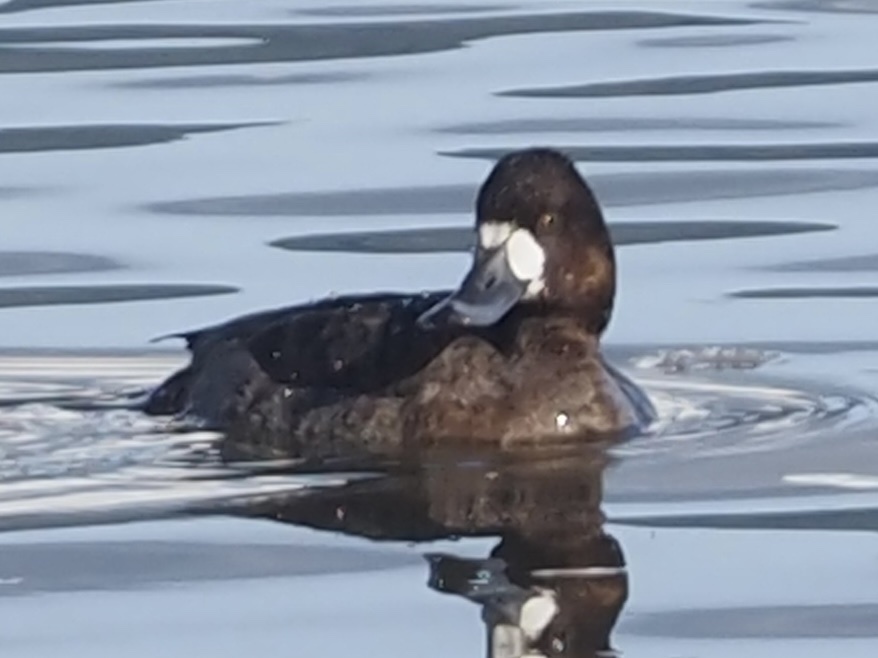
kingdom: Animalia
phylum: Chordata
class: Aves
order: Anseriformes
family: Anatidae
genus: Aythya
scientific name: Aythya affinis
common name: Lesser scaup
